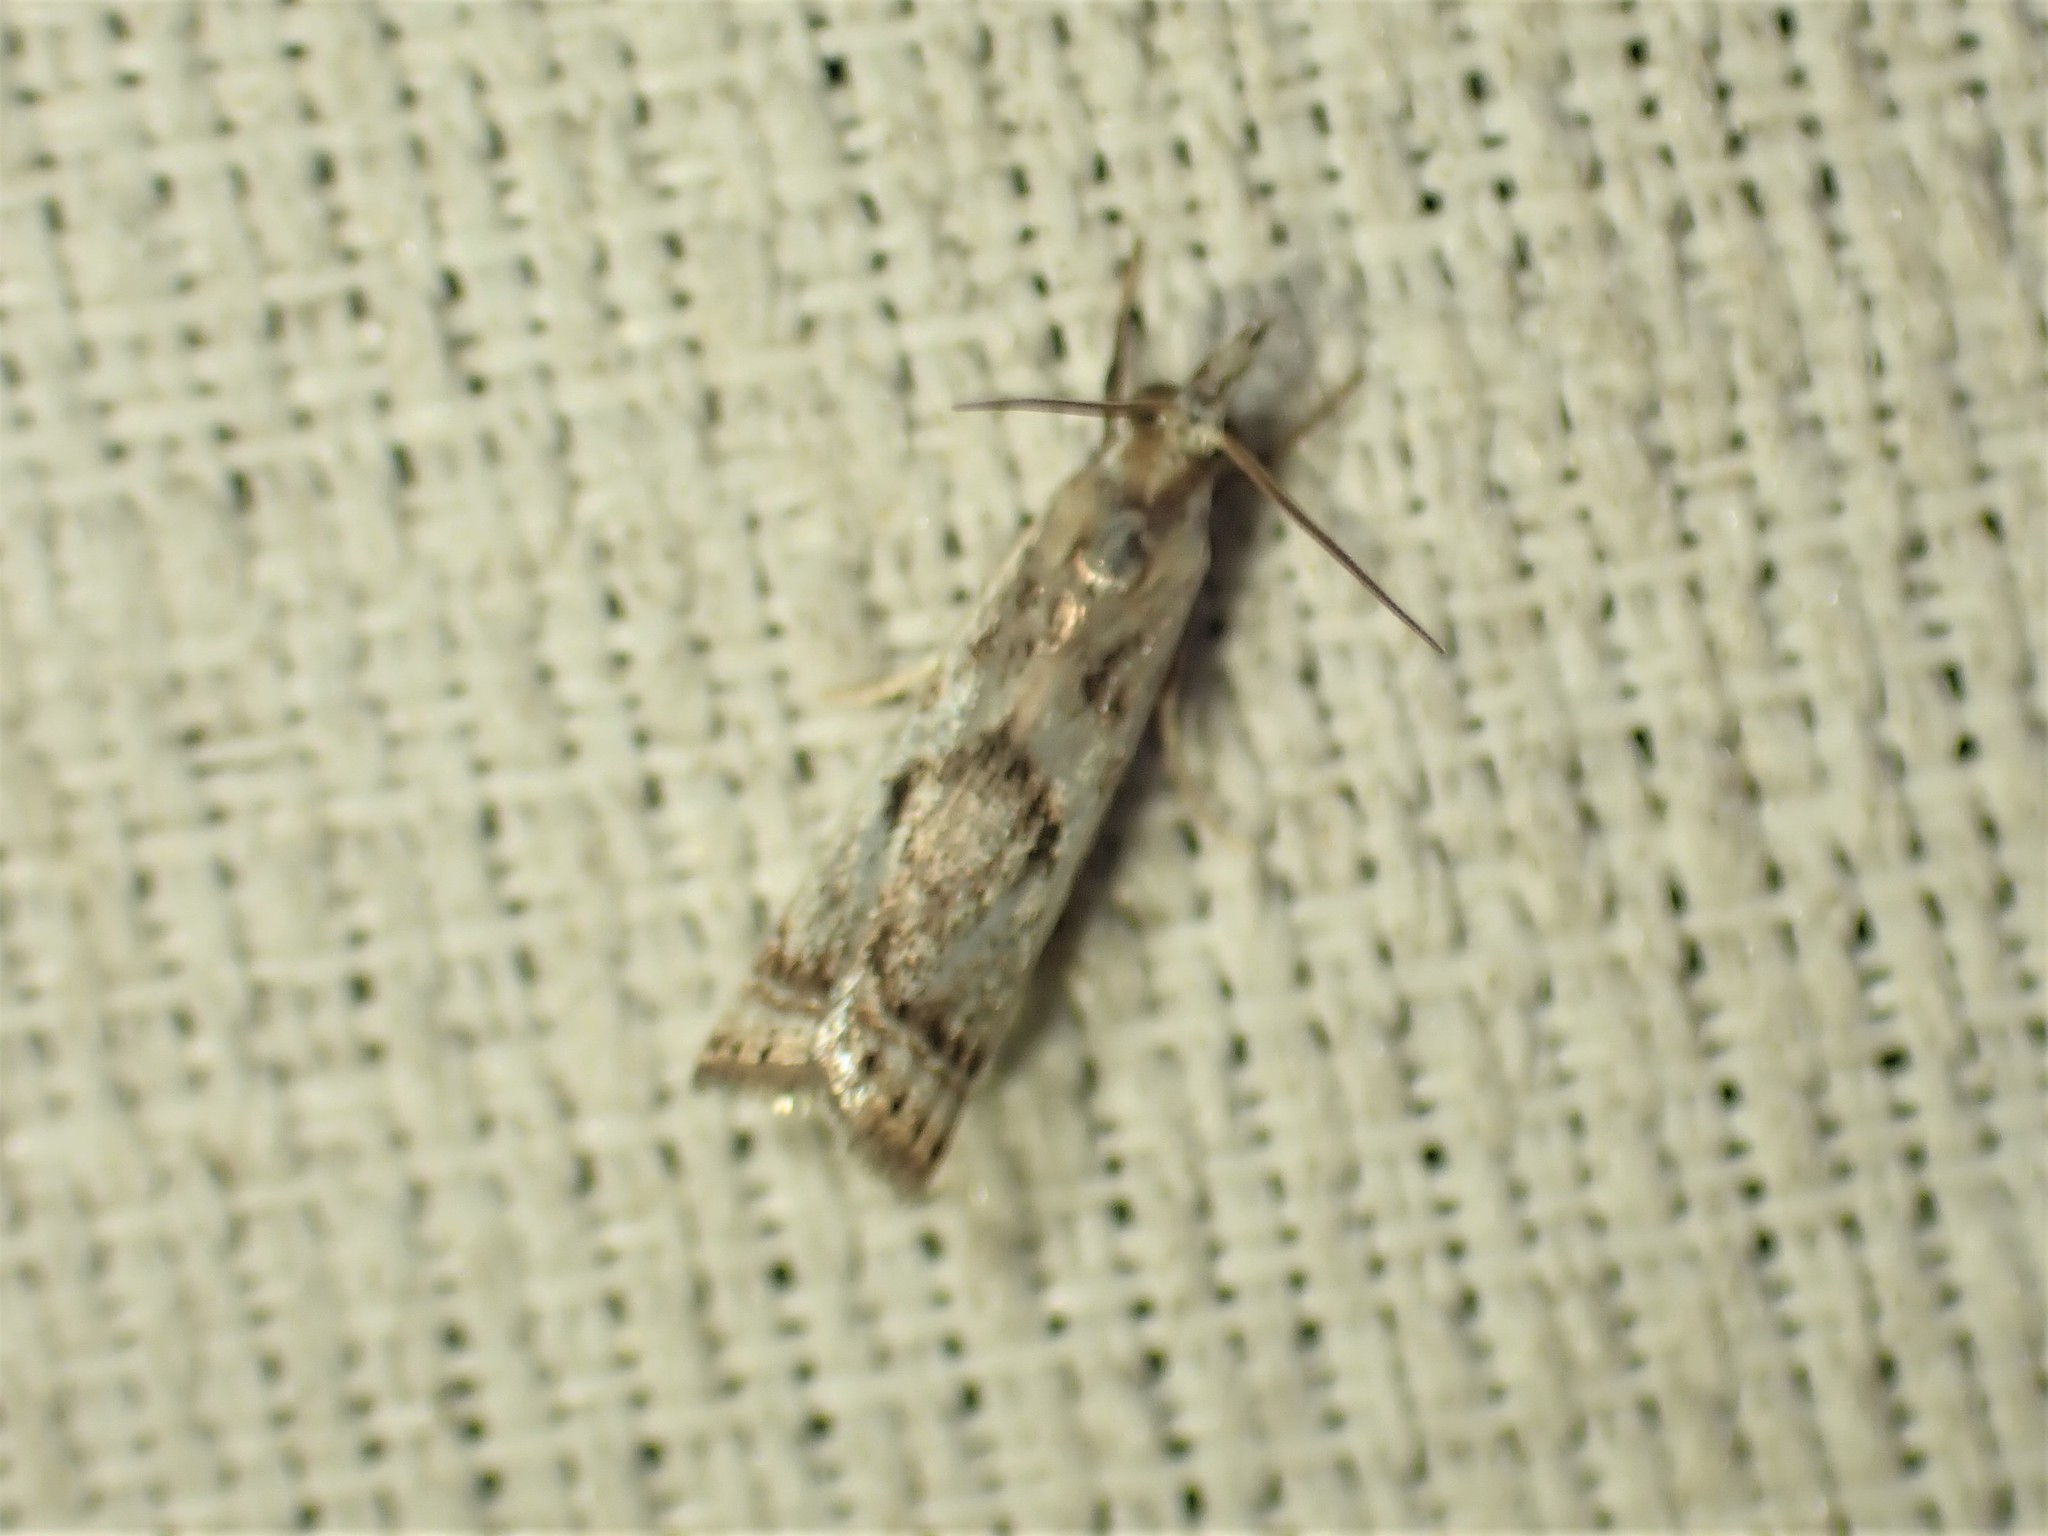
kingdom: Animalia
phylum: Arthropoda
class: Insecta
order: Lepidoptera
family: Crambidae
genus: Microcrambus
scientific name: Microcrambus elegans
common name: Elegant grass-veneer
